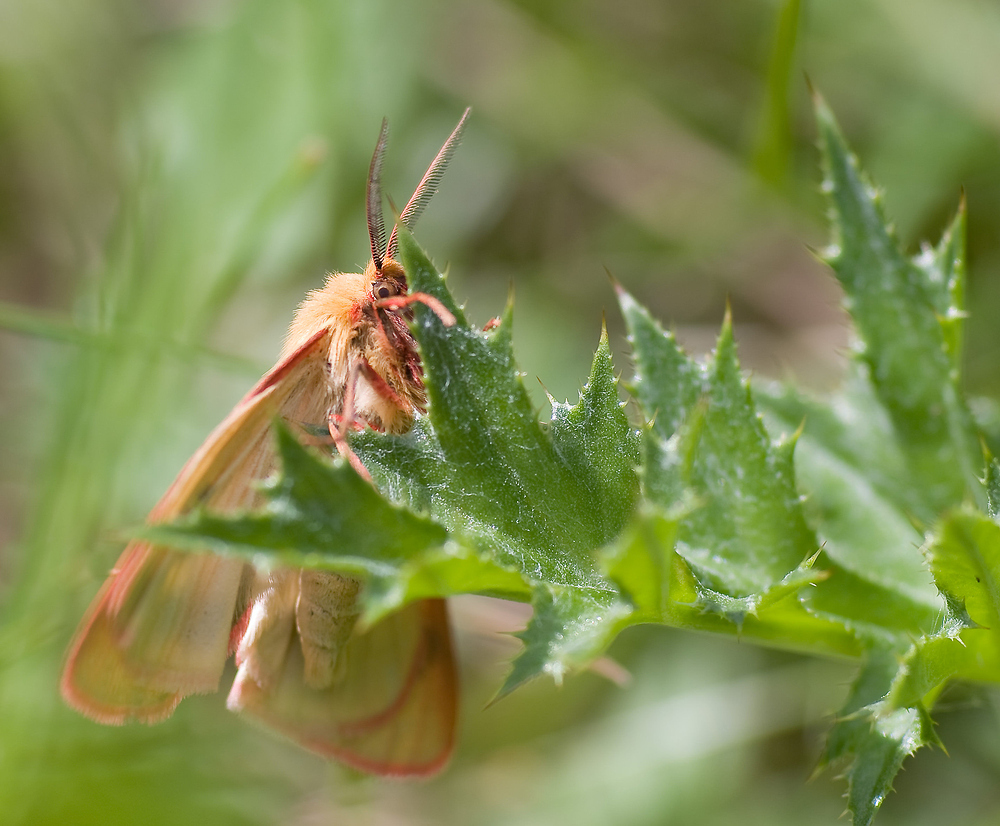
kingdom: Animalia
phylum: Arthropoda
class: Insecta
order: Lepidoptera
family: Erebidae
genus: Diacrisia
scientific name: Diacrisia sannio
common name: Clouded buff
